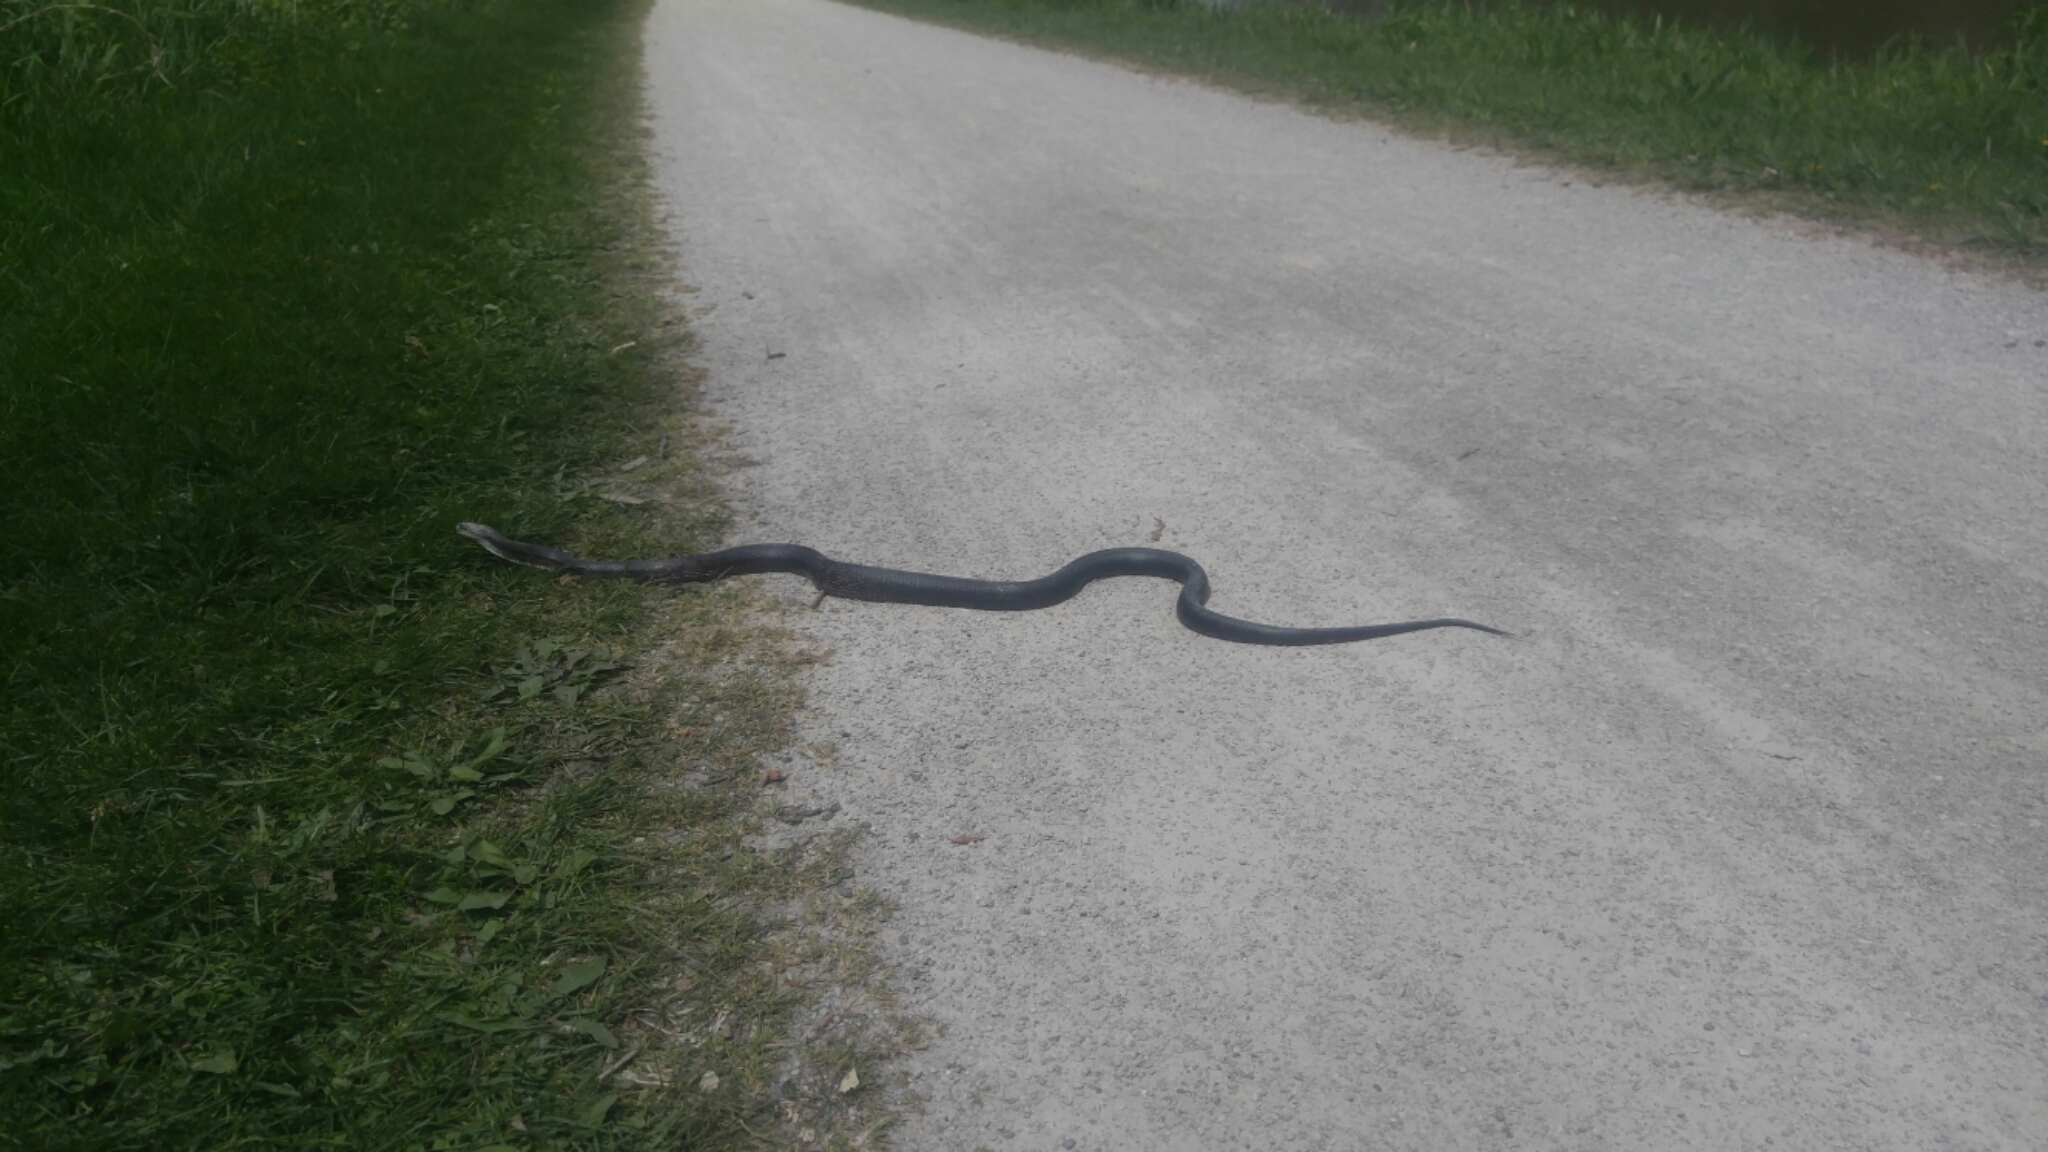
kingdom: Animalia
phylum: Chordata
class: Squamata
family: Colubridae
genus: Pantherophis
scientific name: Pantherophis spiloides
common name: Gray rat snake
